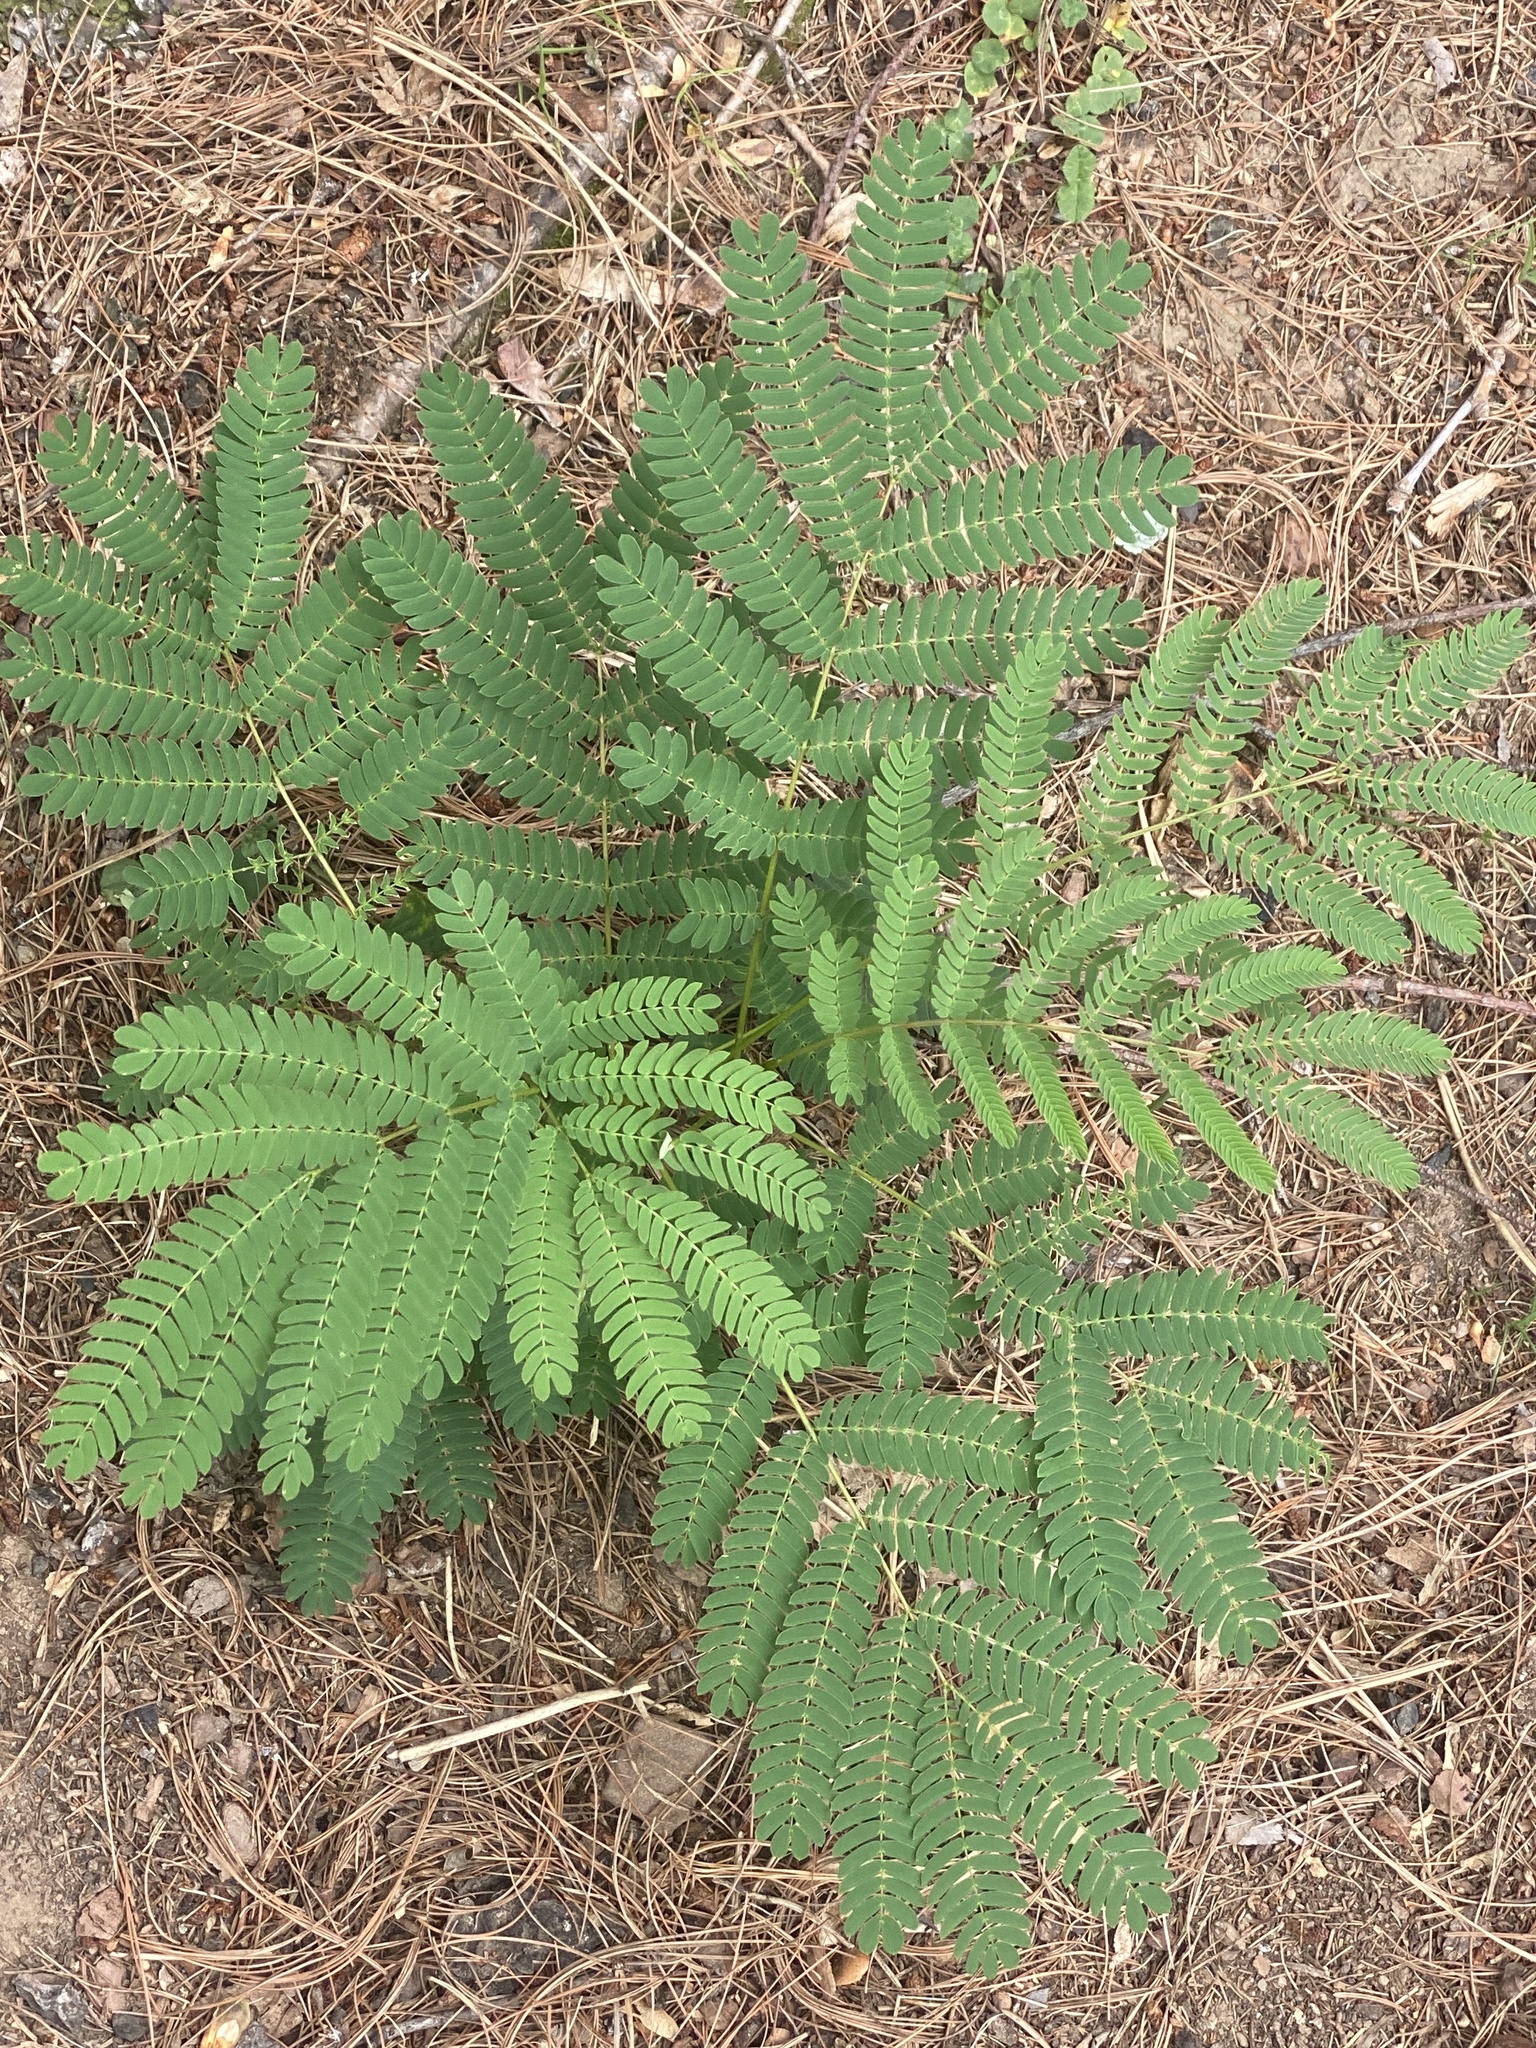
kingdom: Plantae
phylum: Tracheophyta
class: Magnoliopsida
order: Fabales
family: Fabaceae
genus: Albizia
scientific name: Albizia julibrissin
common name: Silktree
